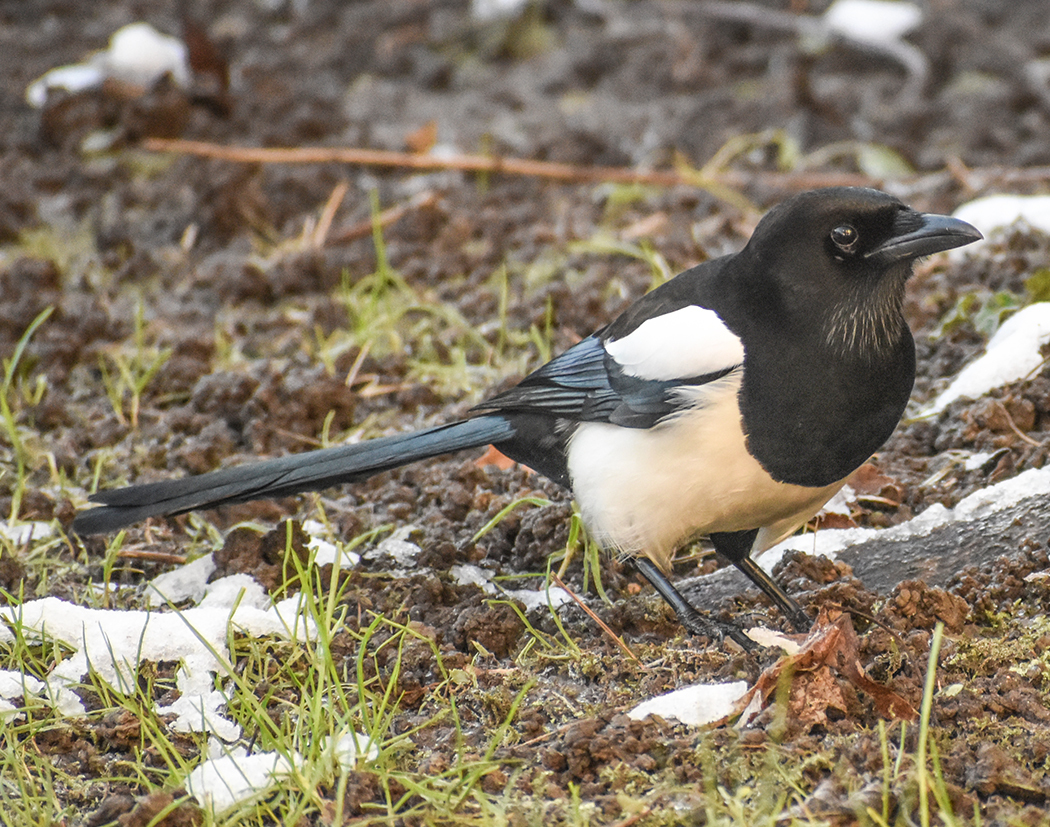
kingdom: Animalia
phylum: Chordata
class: Aves
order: Passeriformes
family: Corvidae
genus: Pica
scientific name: Pica pica
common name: Eurasian magpie
